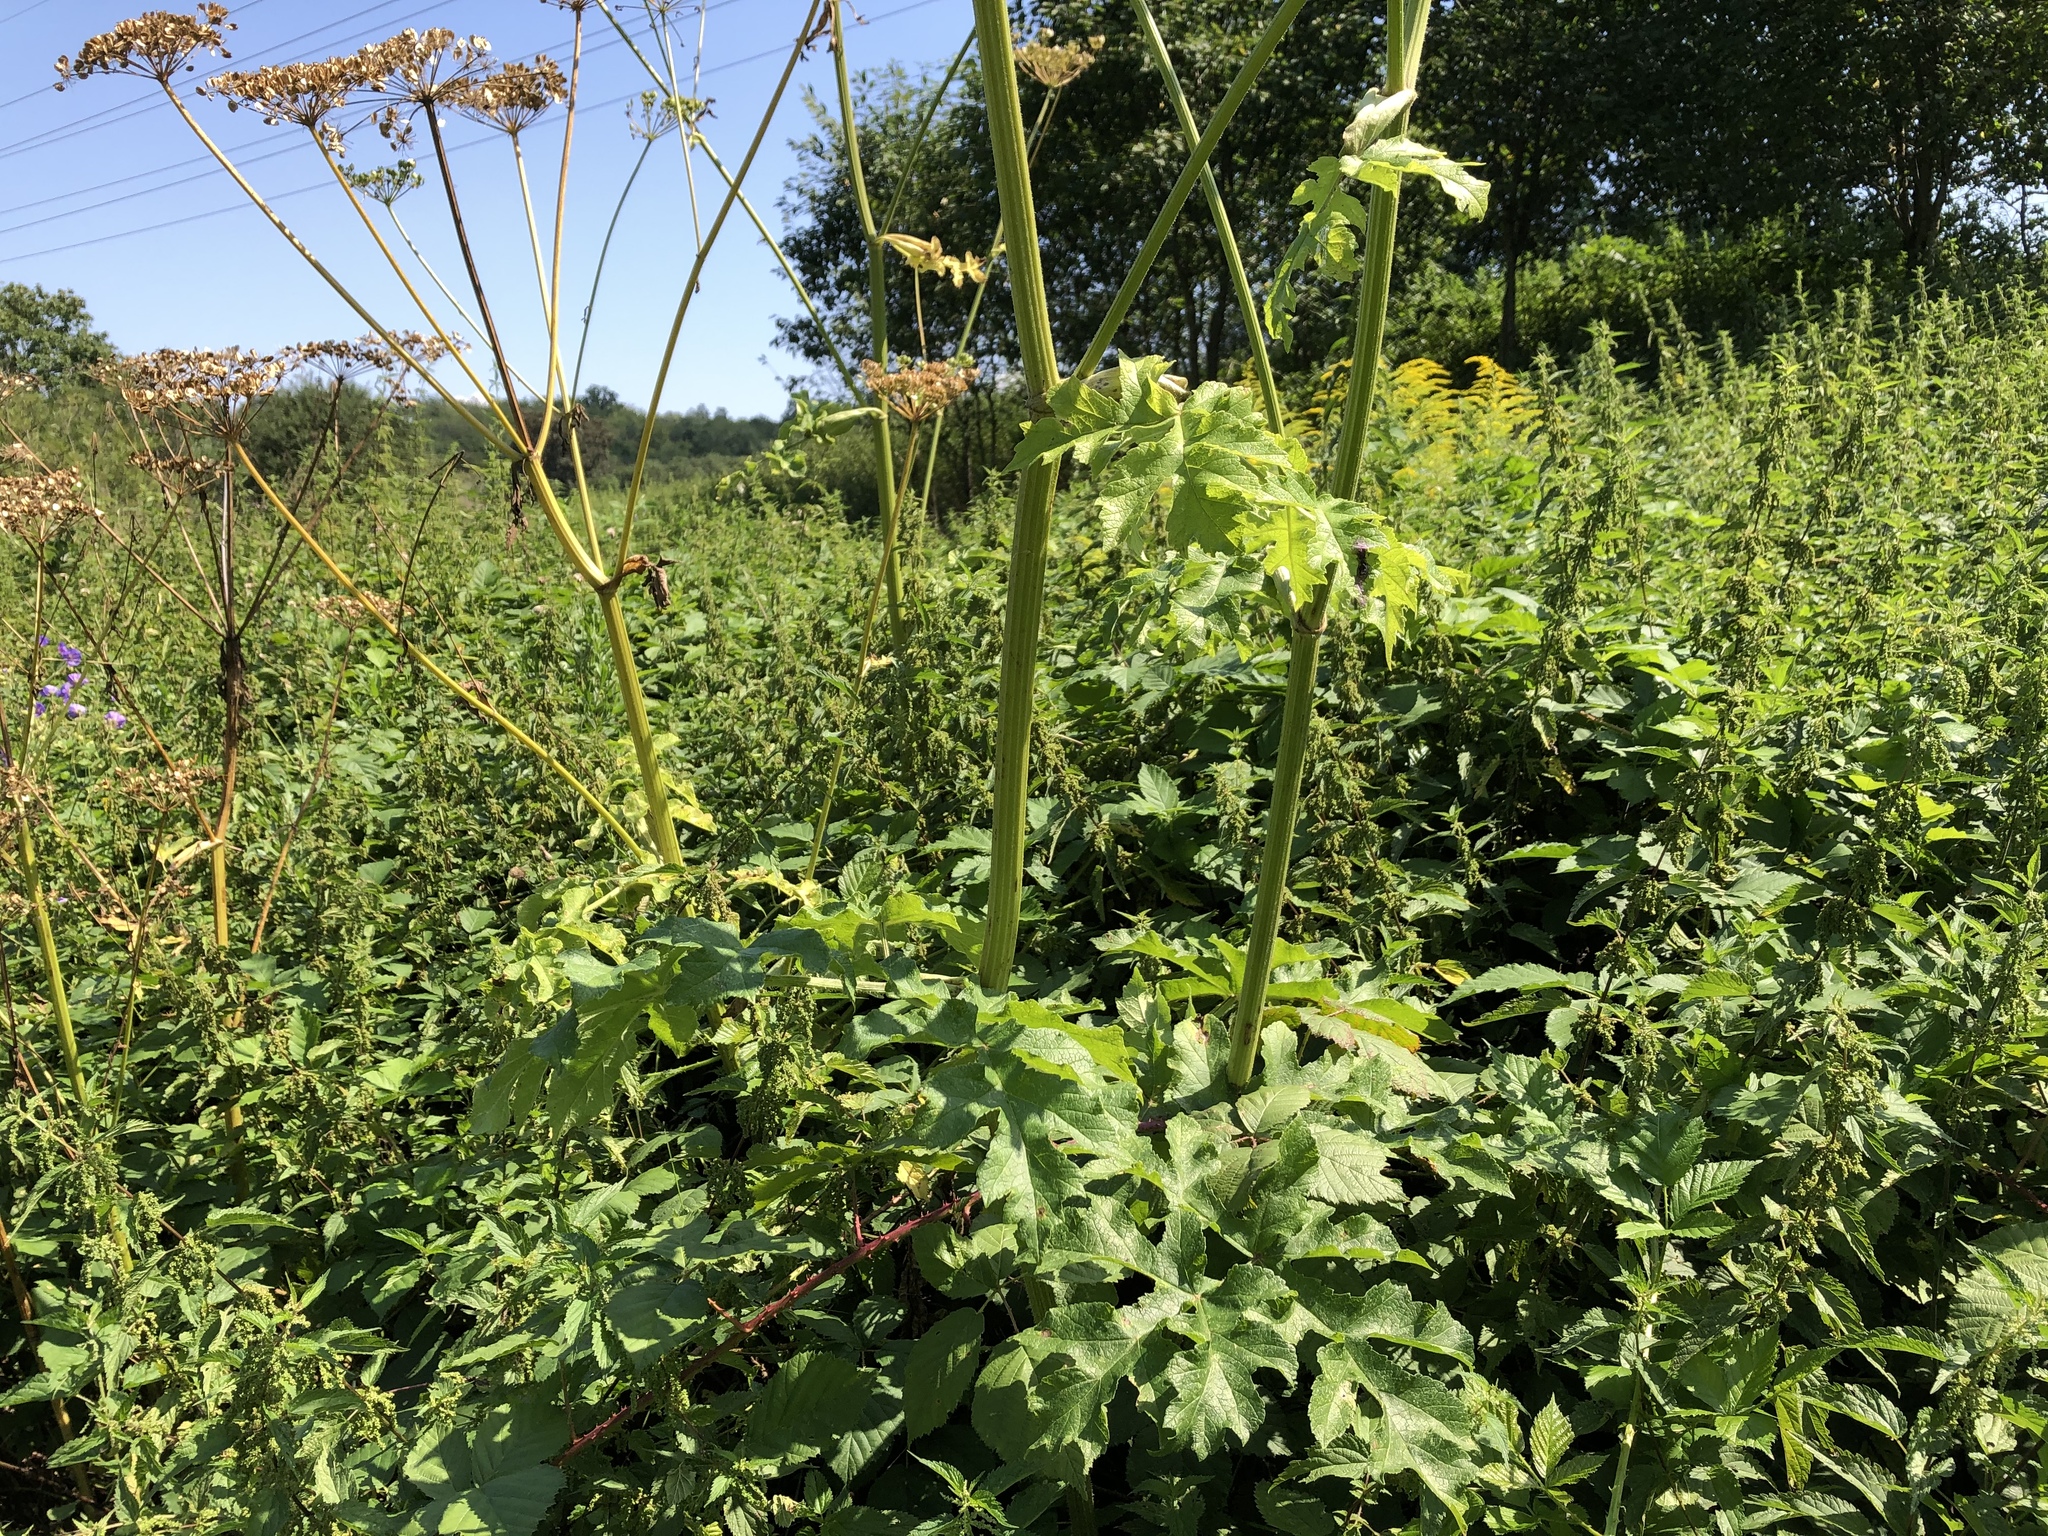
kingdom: Plantae
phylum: Tracheophyta
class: Magnoliopsida
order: Apiales
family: Apiaceae
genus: Heracleum
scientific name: Heracleum sphondylium
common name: Hogweed
